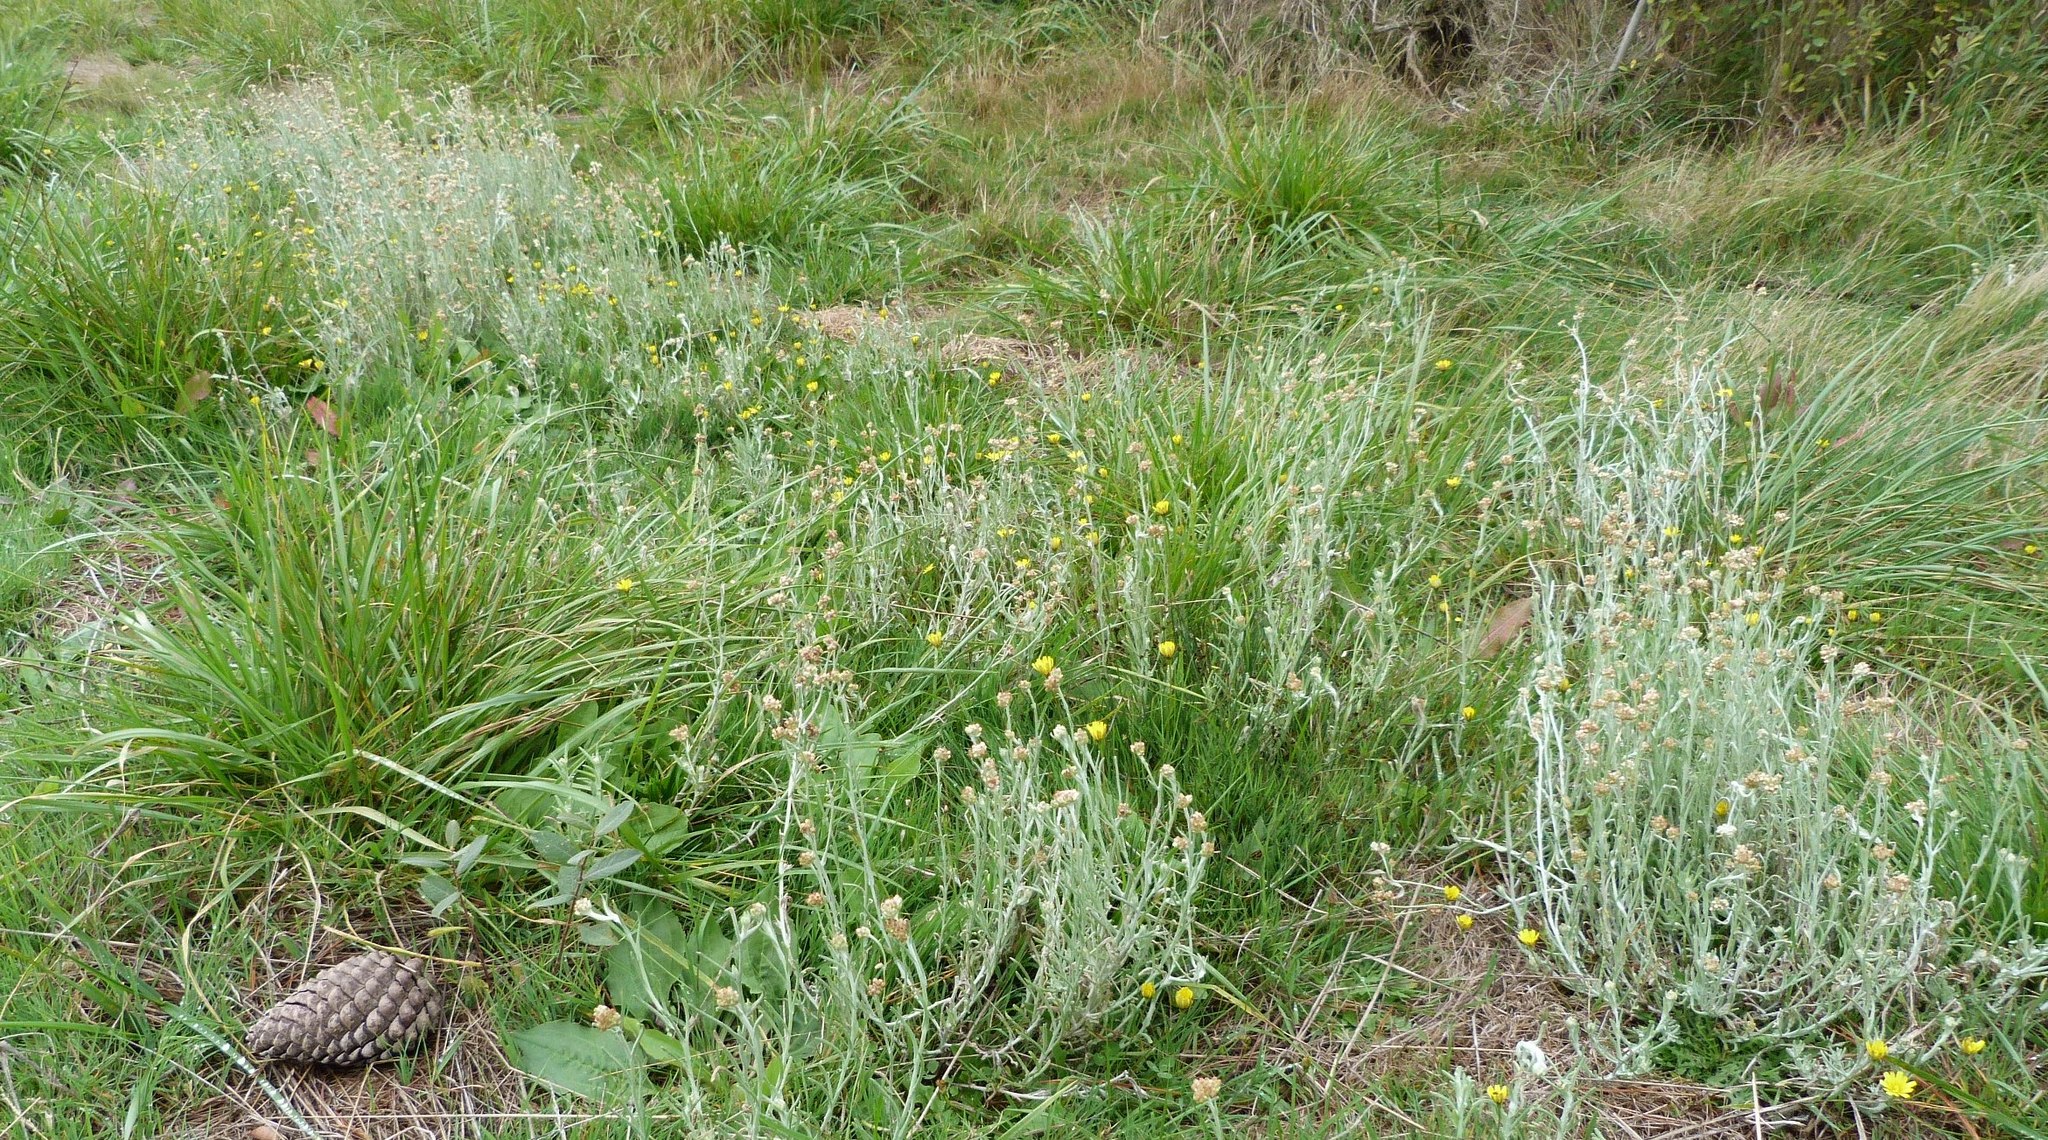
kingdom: Plantae
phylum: Tracheophyta
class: Magnoliopsida
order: Asterales
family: Asteraceae
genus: Helichrysum
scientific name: Helichrysum luteoalbum
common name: Daisy
